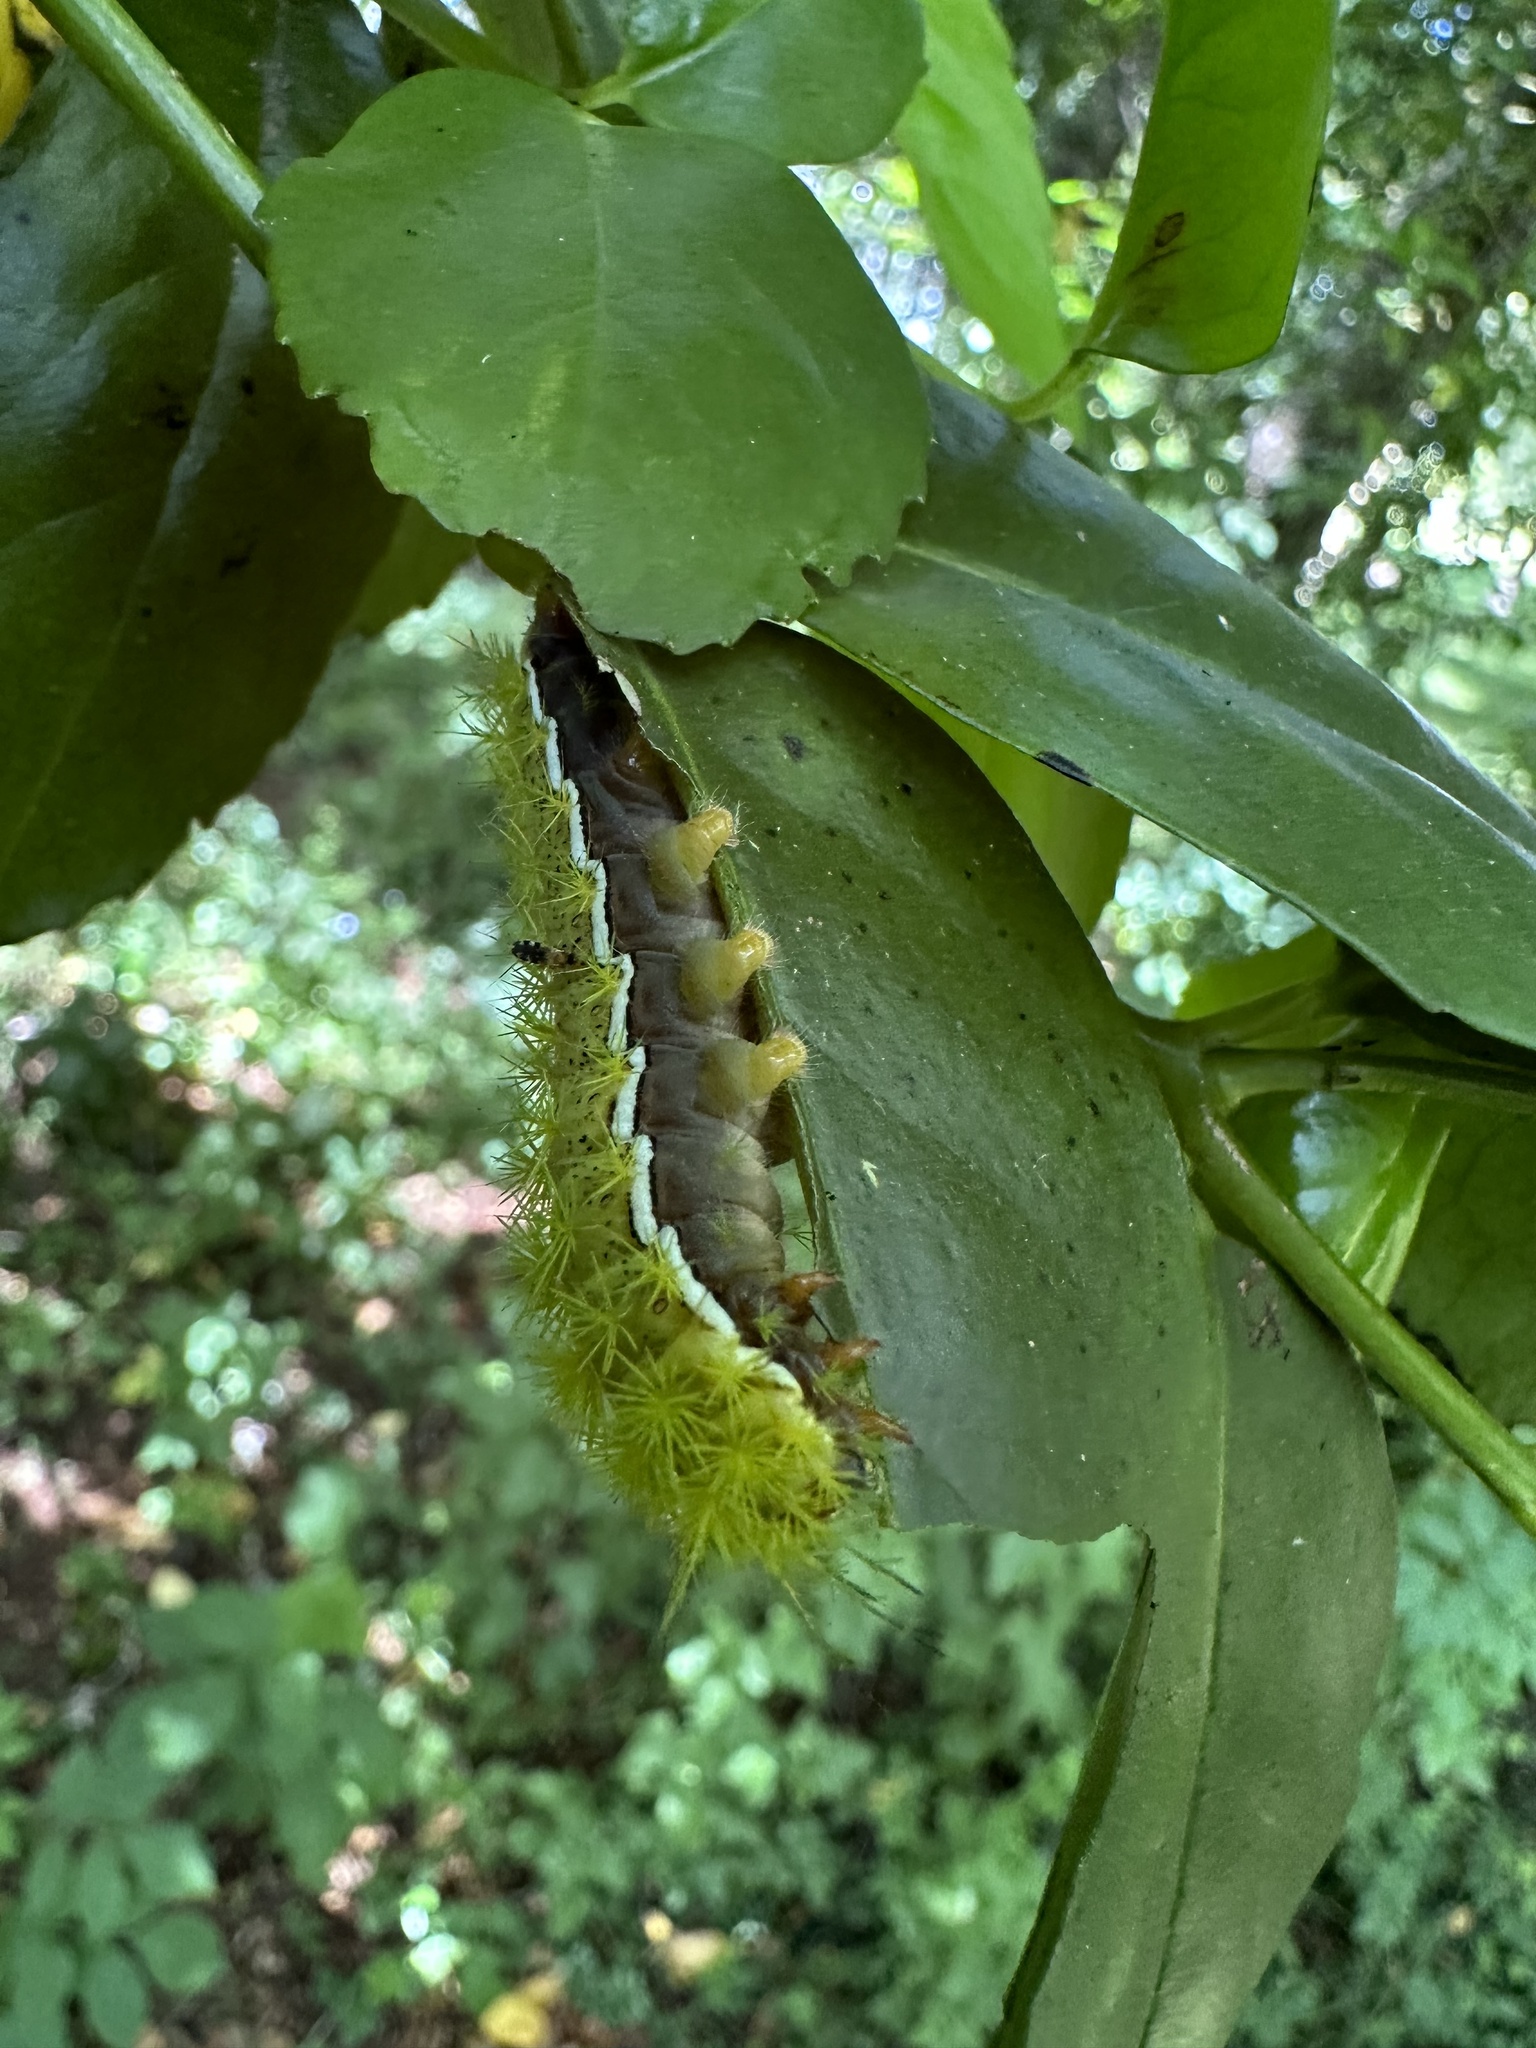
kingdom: Animalia
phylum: Arthropoda
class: Insecta
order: Lepidoptera
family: Saturniidae
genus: Adetomeris
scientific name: Adetomeris erythrops
